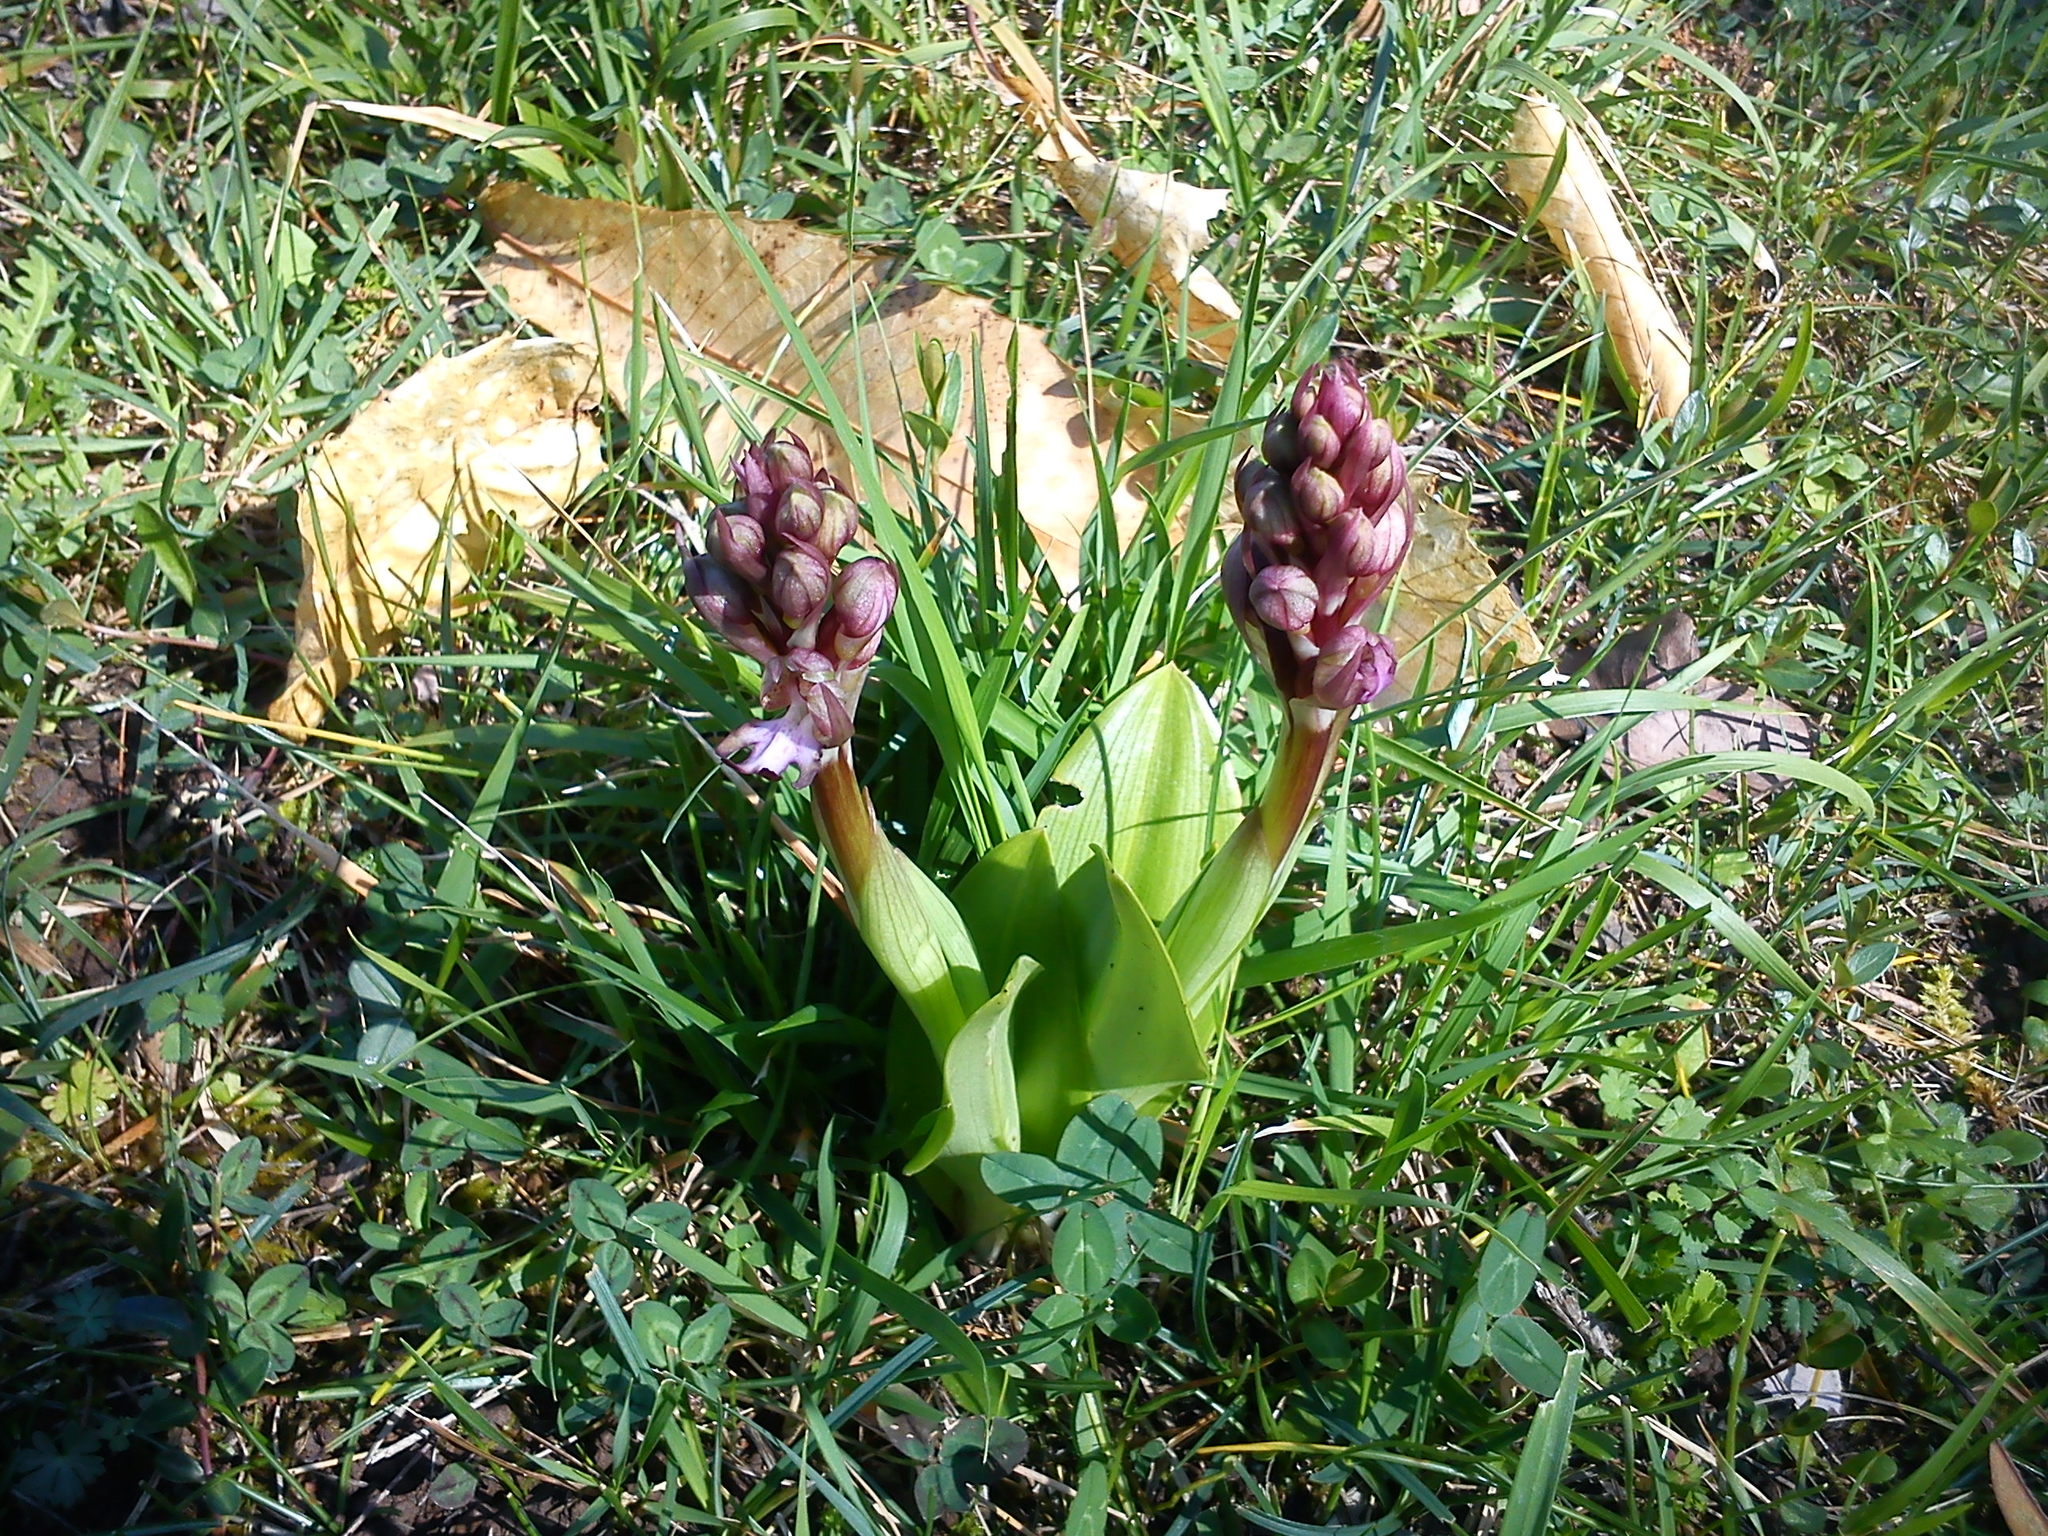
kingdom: Plantae
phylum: Tracheophyta
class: Liliopsida
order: Asparagales
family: Orchidaceae
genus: Himantoglossum
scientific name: Himantoglossum robertianum
